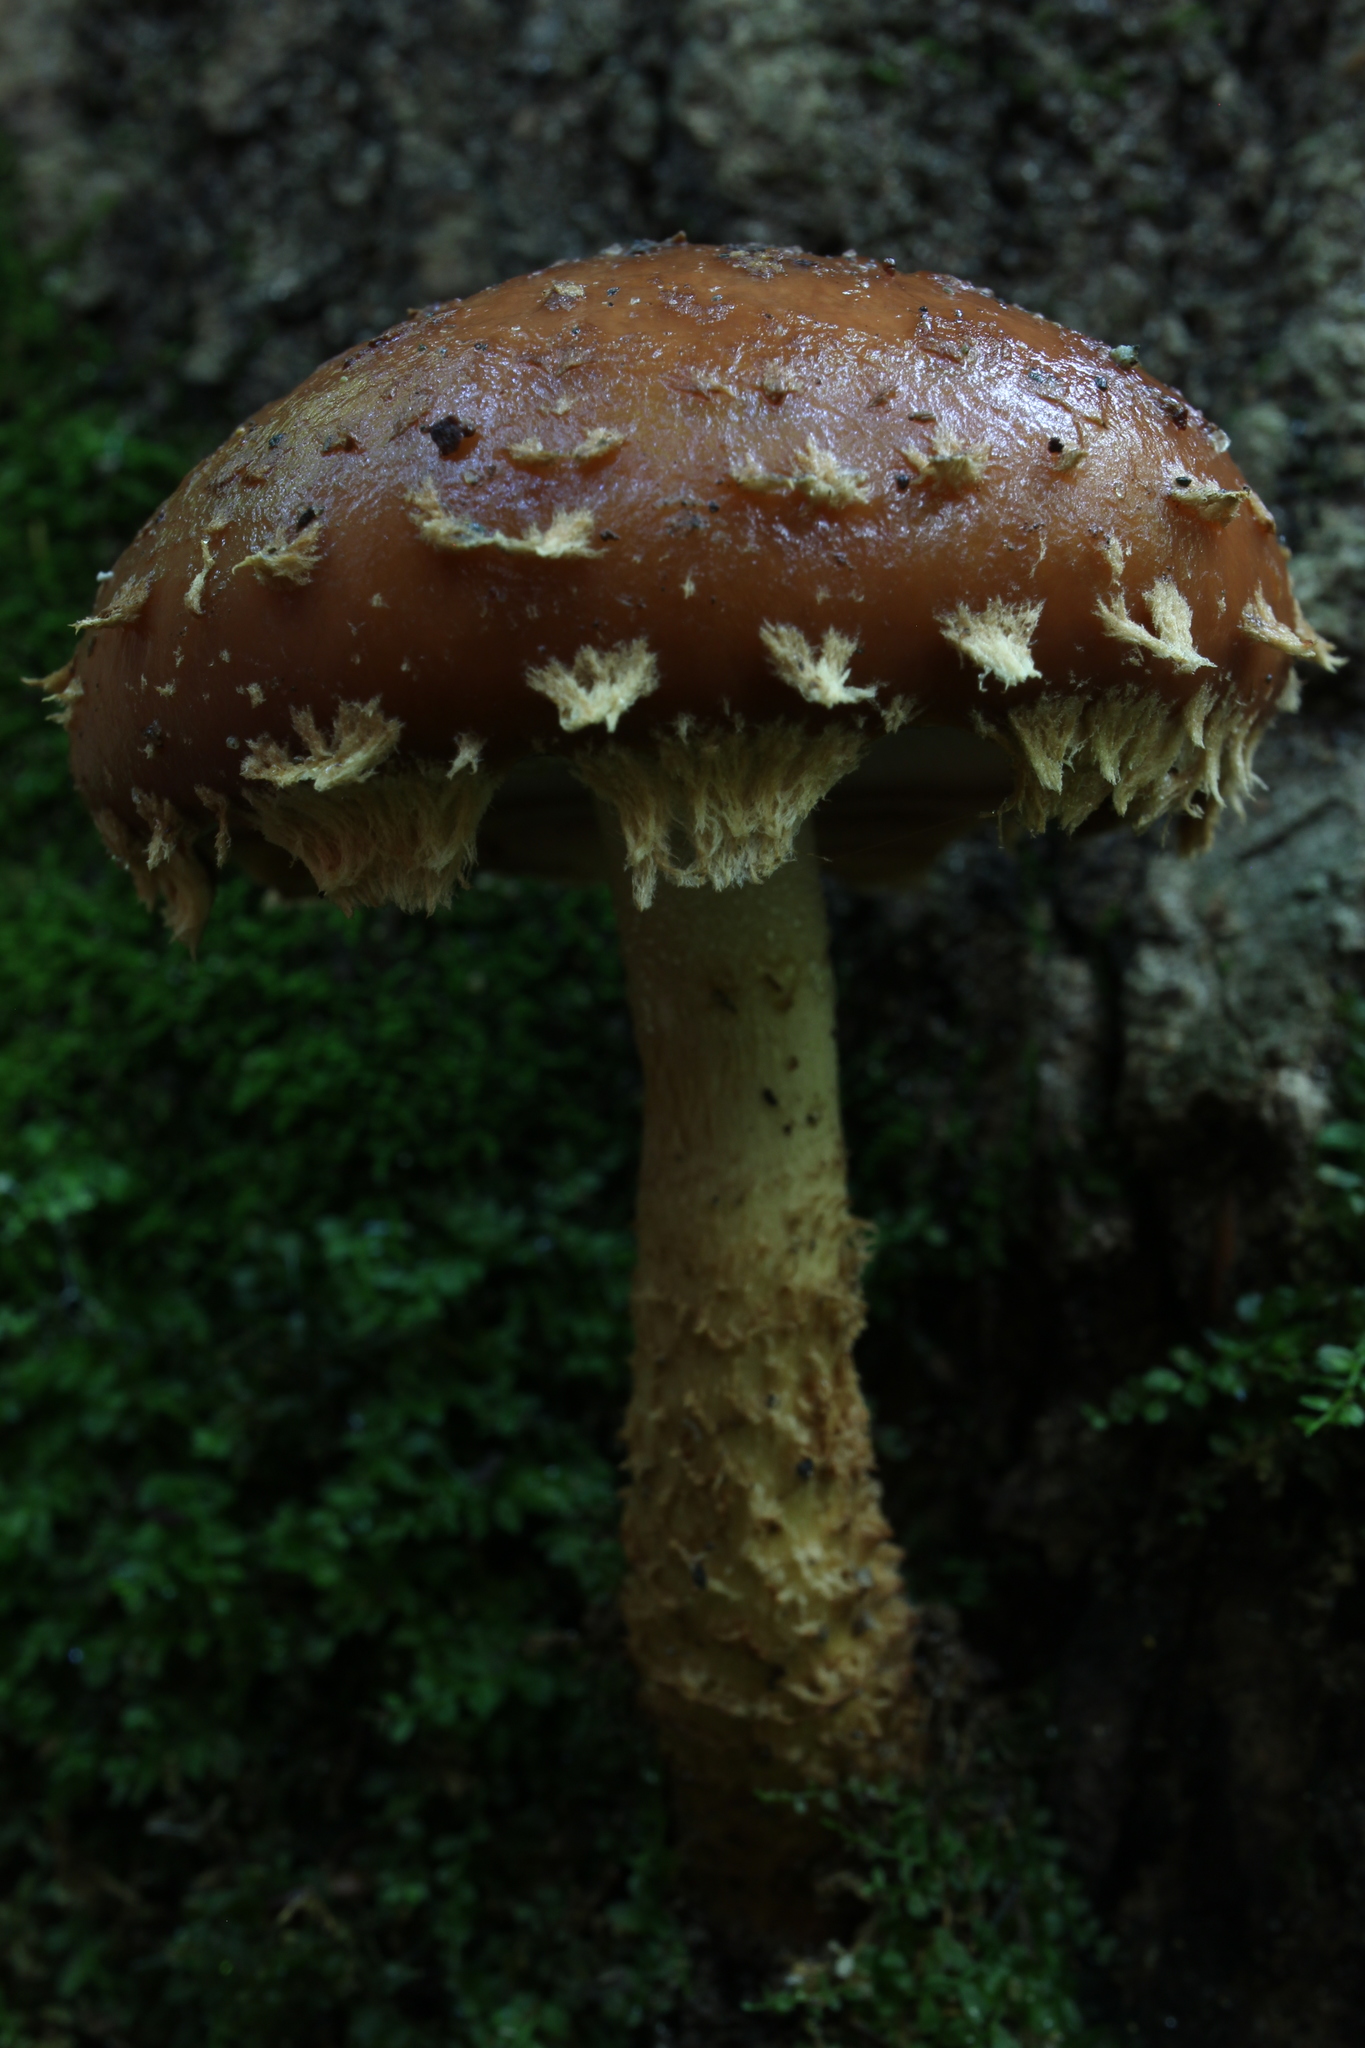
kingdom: Fungi
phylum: Basidiomycota
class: Agaricomycetes
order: Agaricales
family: Tubariaceae
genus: Hemistropharia
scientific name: Hemistropharia albocrenulata
